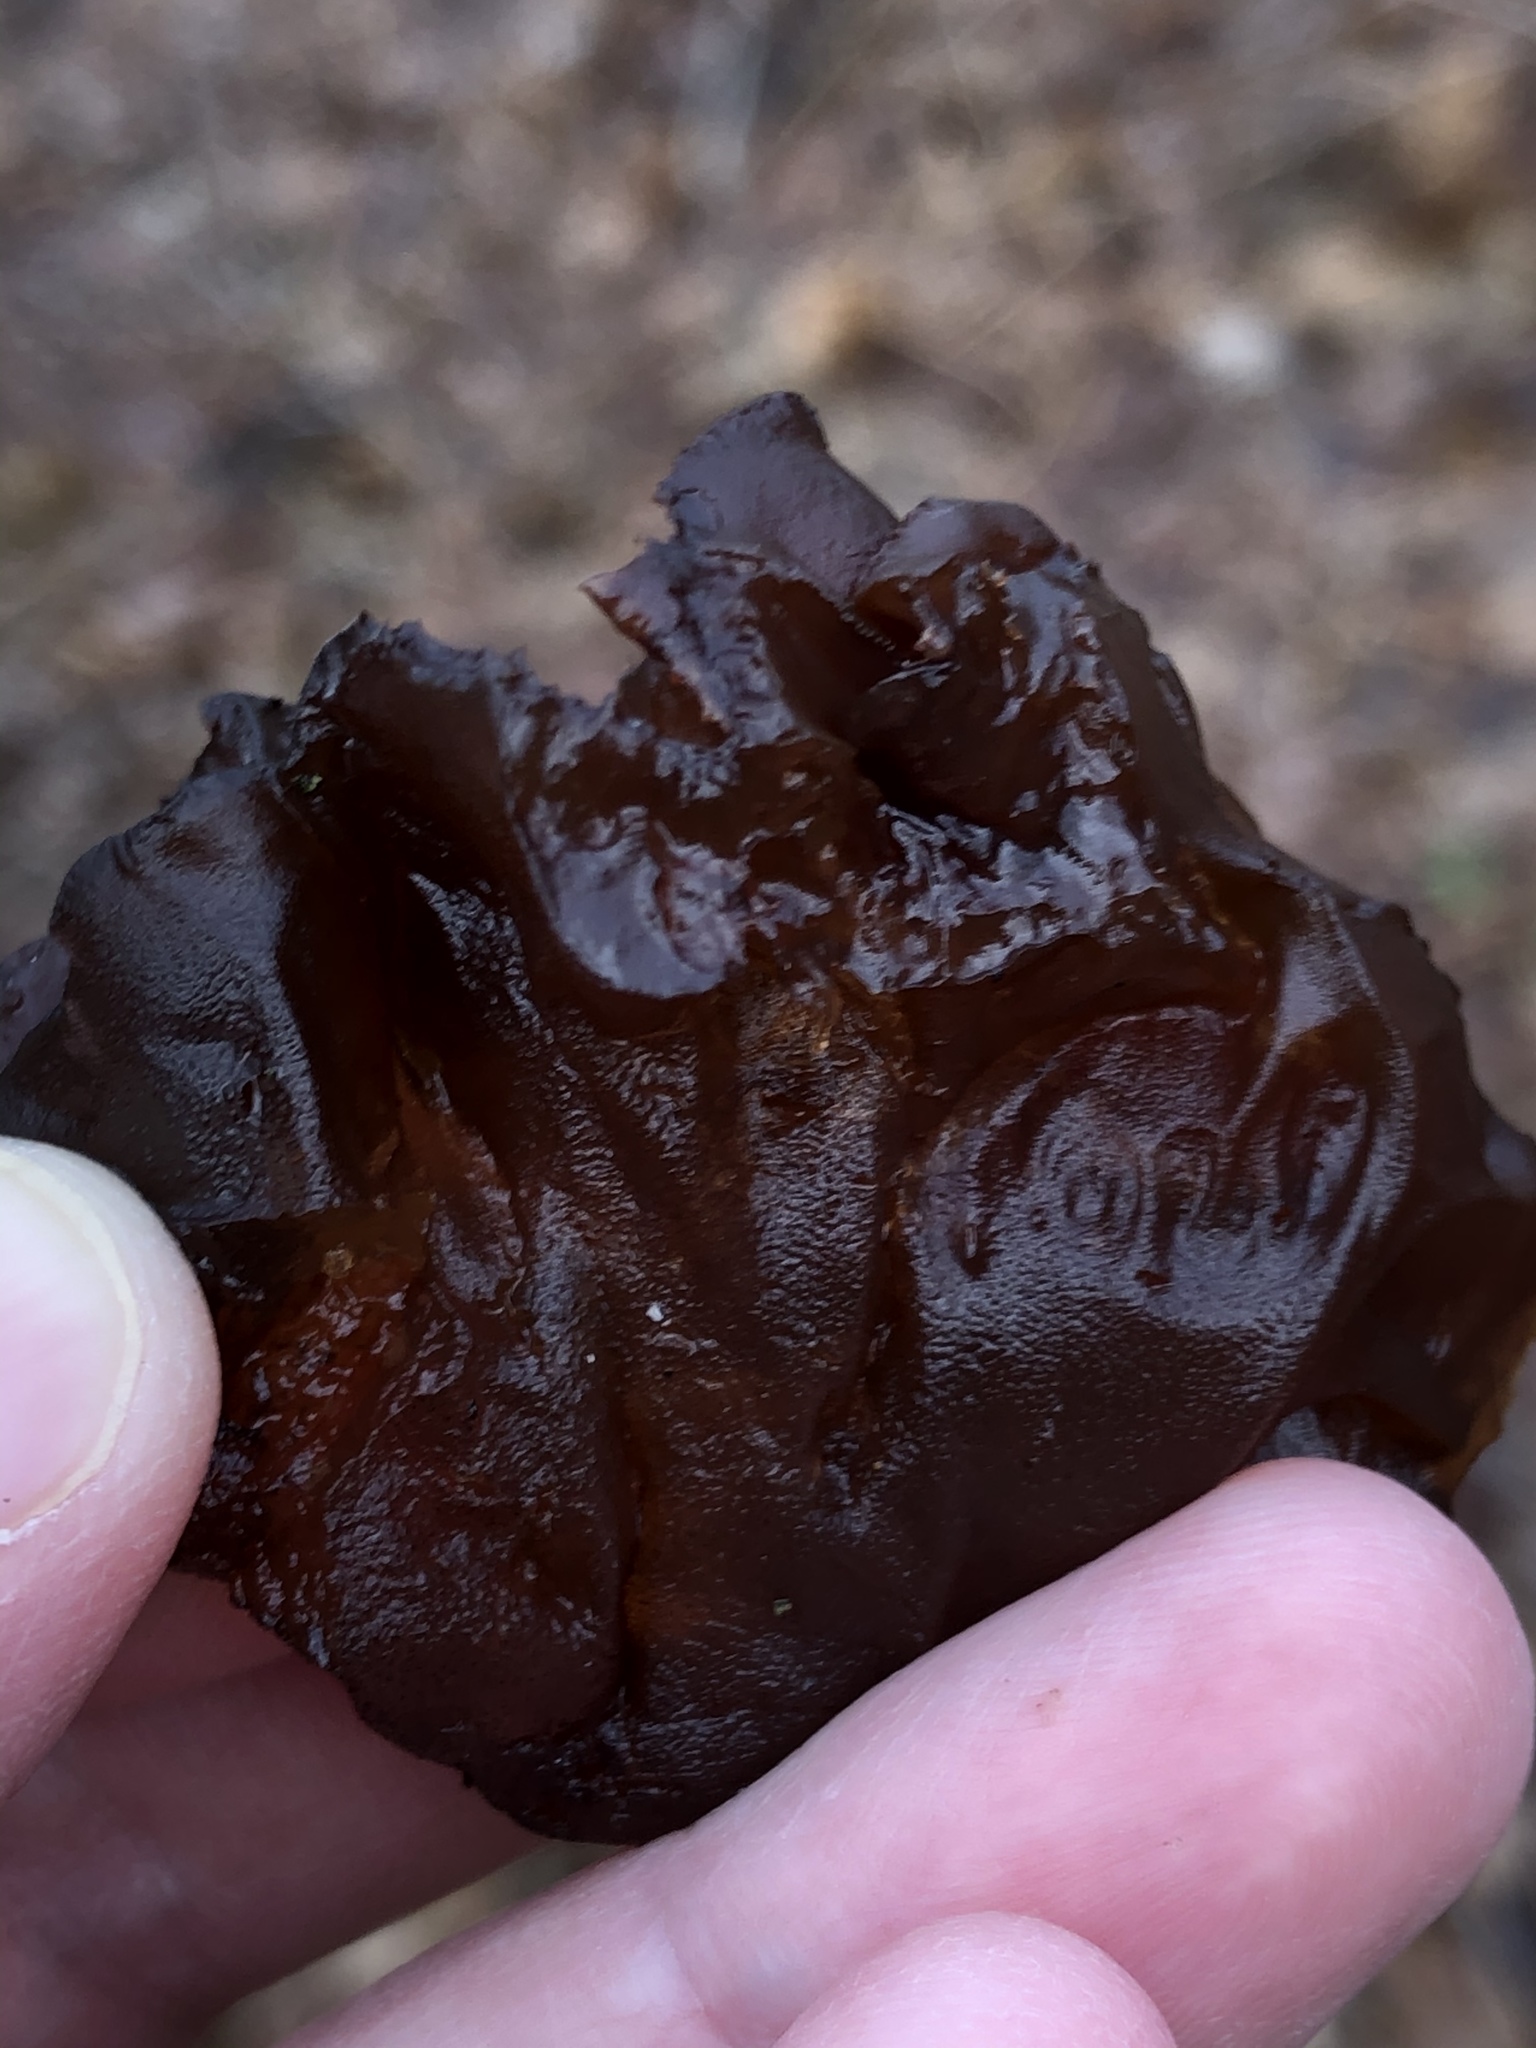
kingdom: Fungi
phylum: Basidiomycota
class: Agaricomycetes
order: Auriculariales
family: Auriculariaceae
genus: Exidia
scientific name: Exidia
